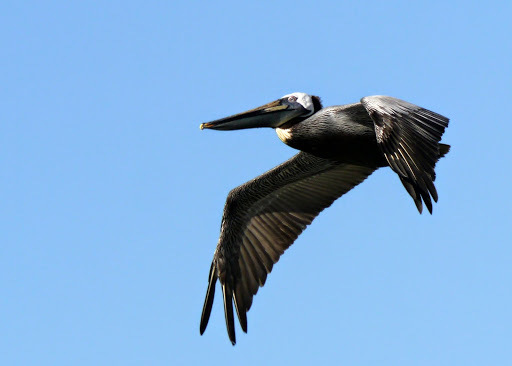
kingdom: Animalia
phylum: Chordata
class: Aves
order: Pelecaniformes
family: Pelecanidae
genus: Pelecanus
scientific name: Pelecanus occidentalis
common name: Brown pelican
